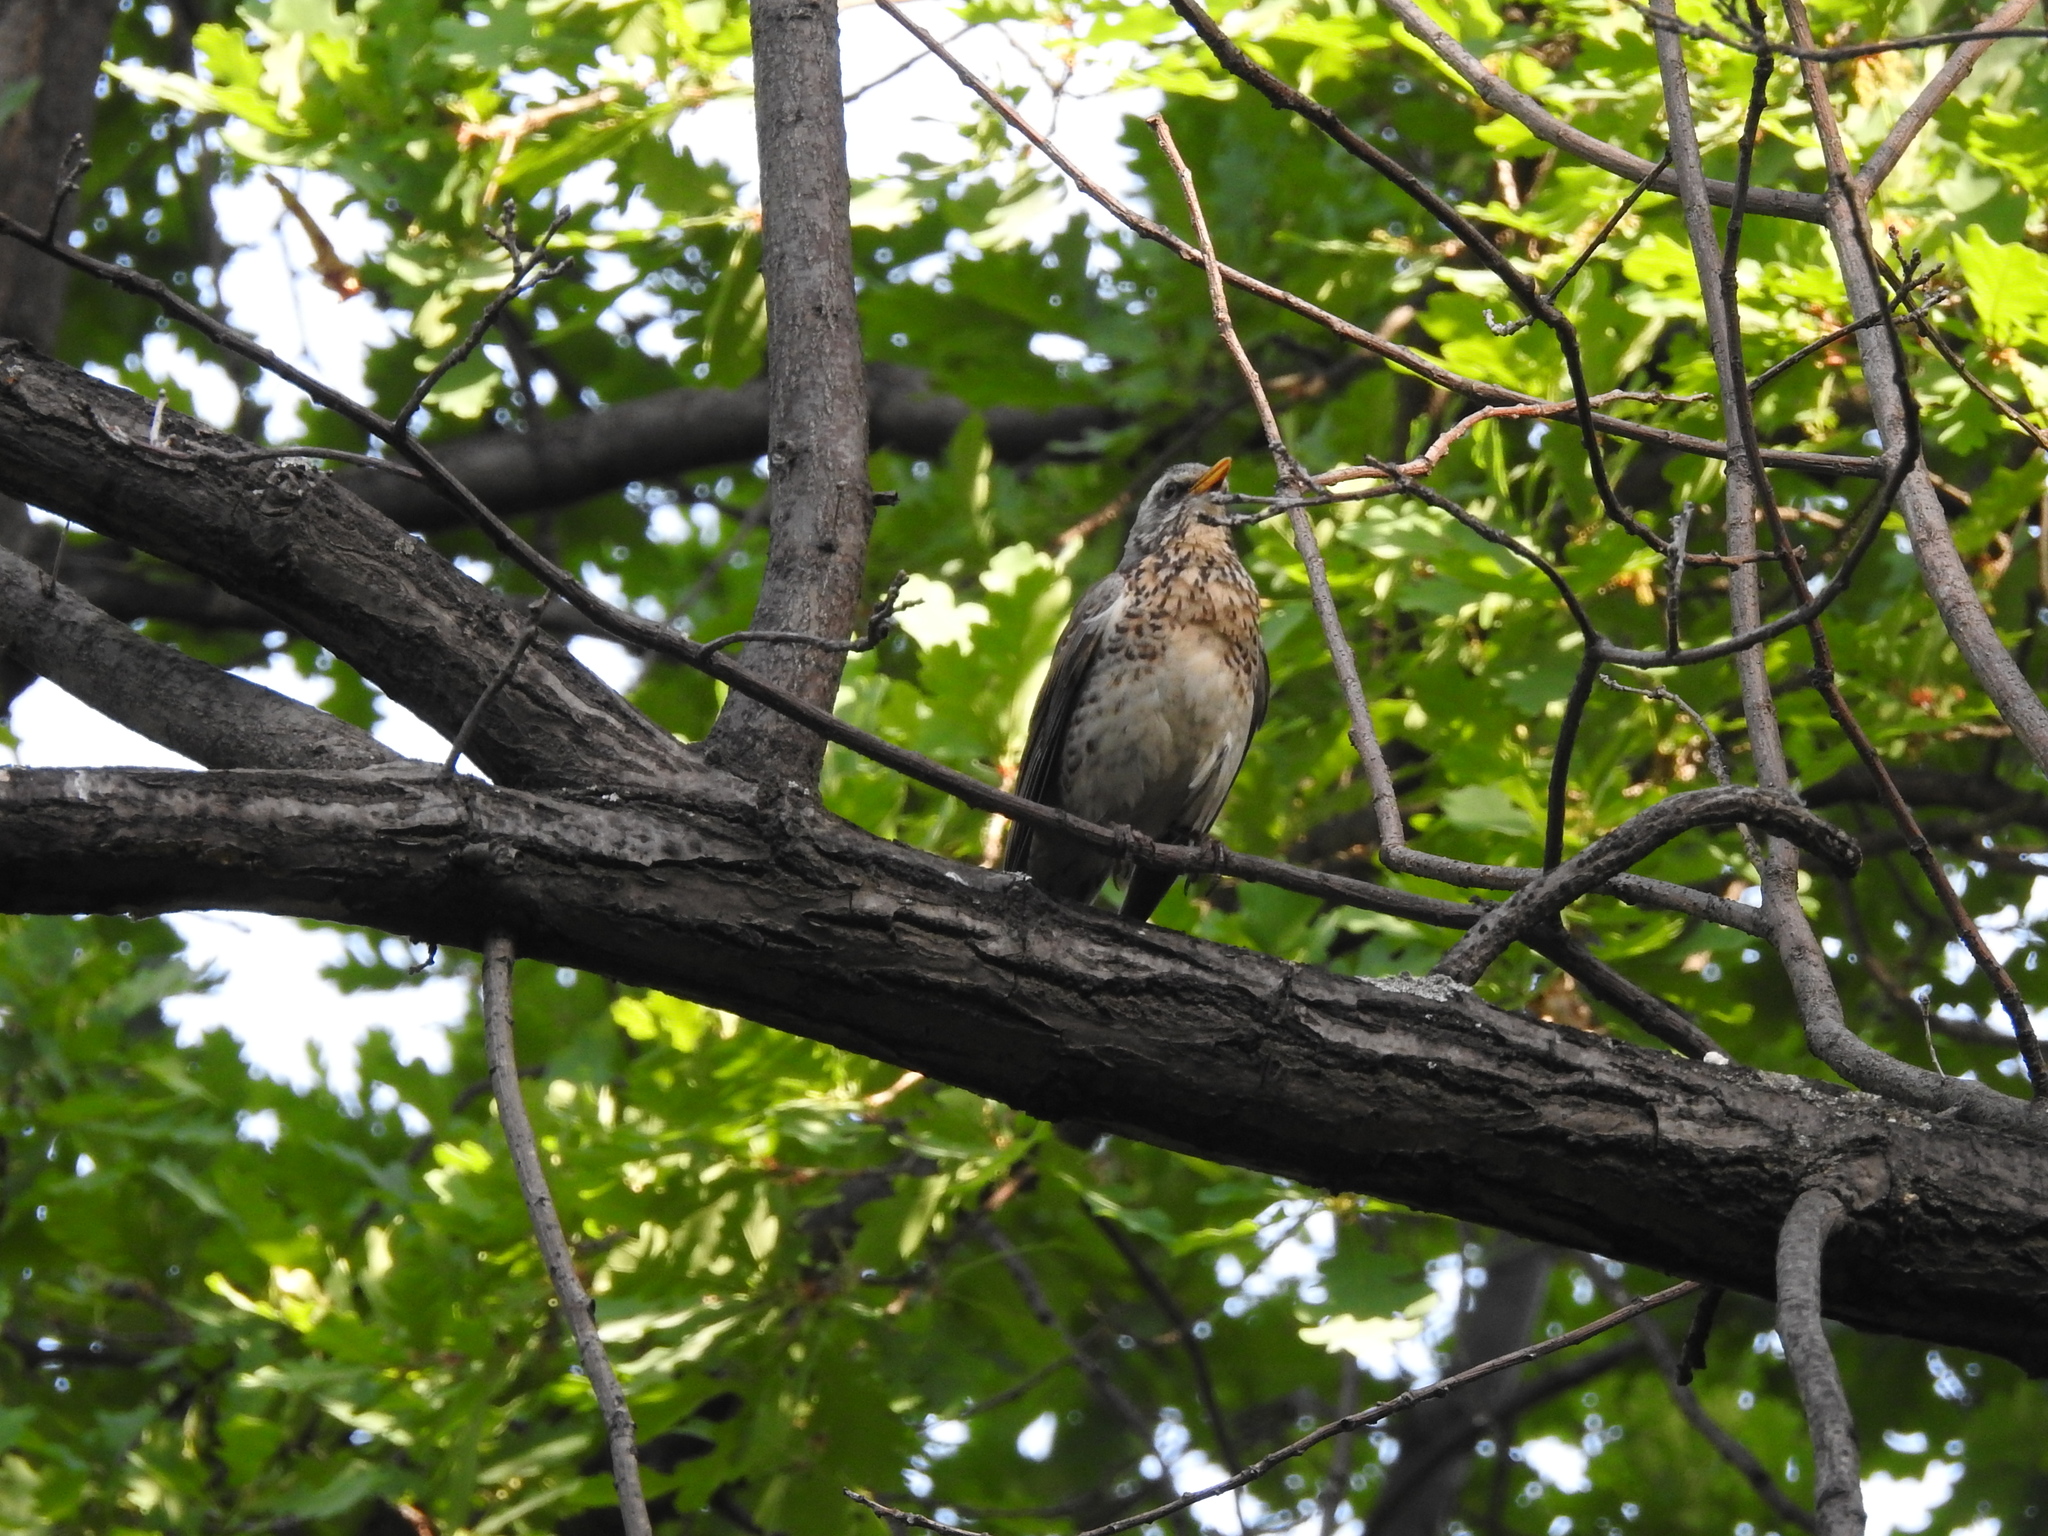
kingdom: Animalia
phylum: Chordata
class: Aves
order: Passeriformes
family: Turdidae
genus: Turdus
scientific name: Turdus pilaris
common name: Fieldfare
